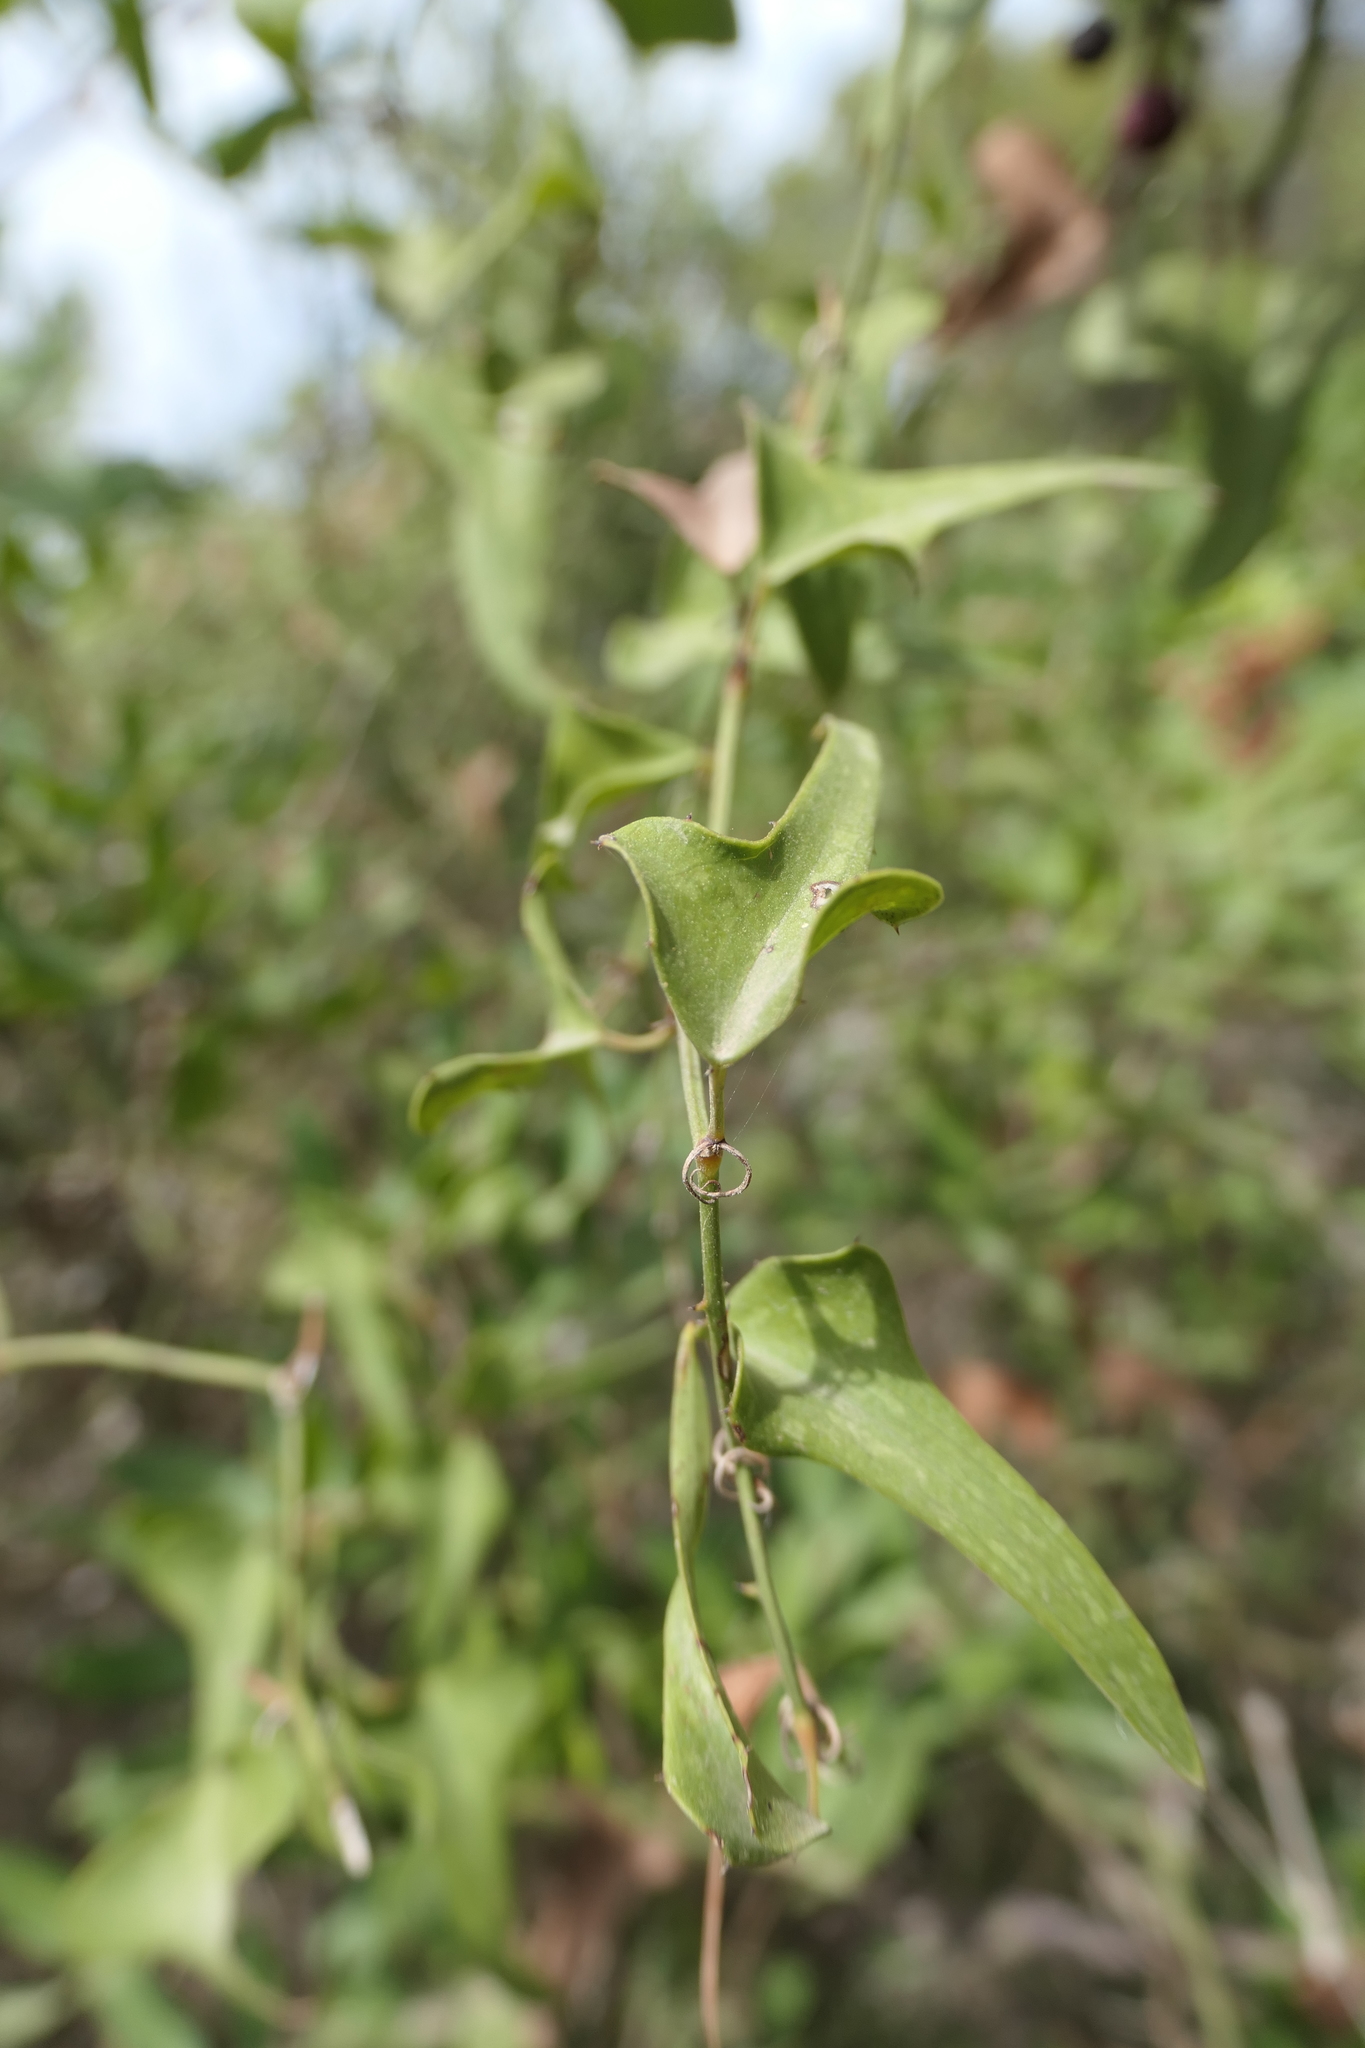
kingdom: Plantae
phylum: Tracheophyta
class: Liliopsida
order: Liliales
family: Smilacaceae
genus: Smilax
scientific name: Smilax aspera
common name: Common smilax
